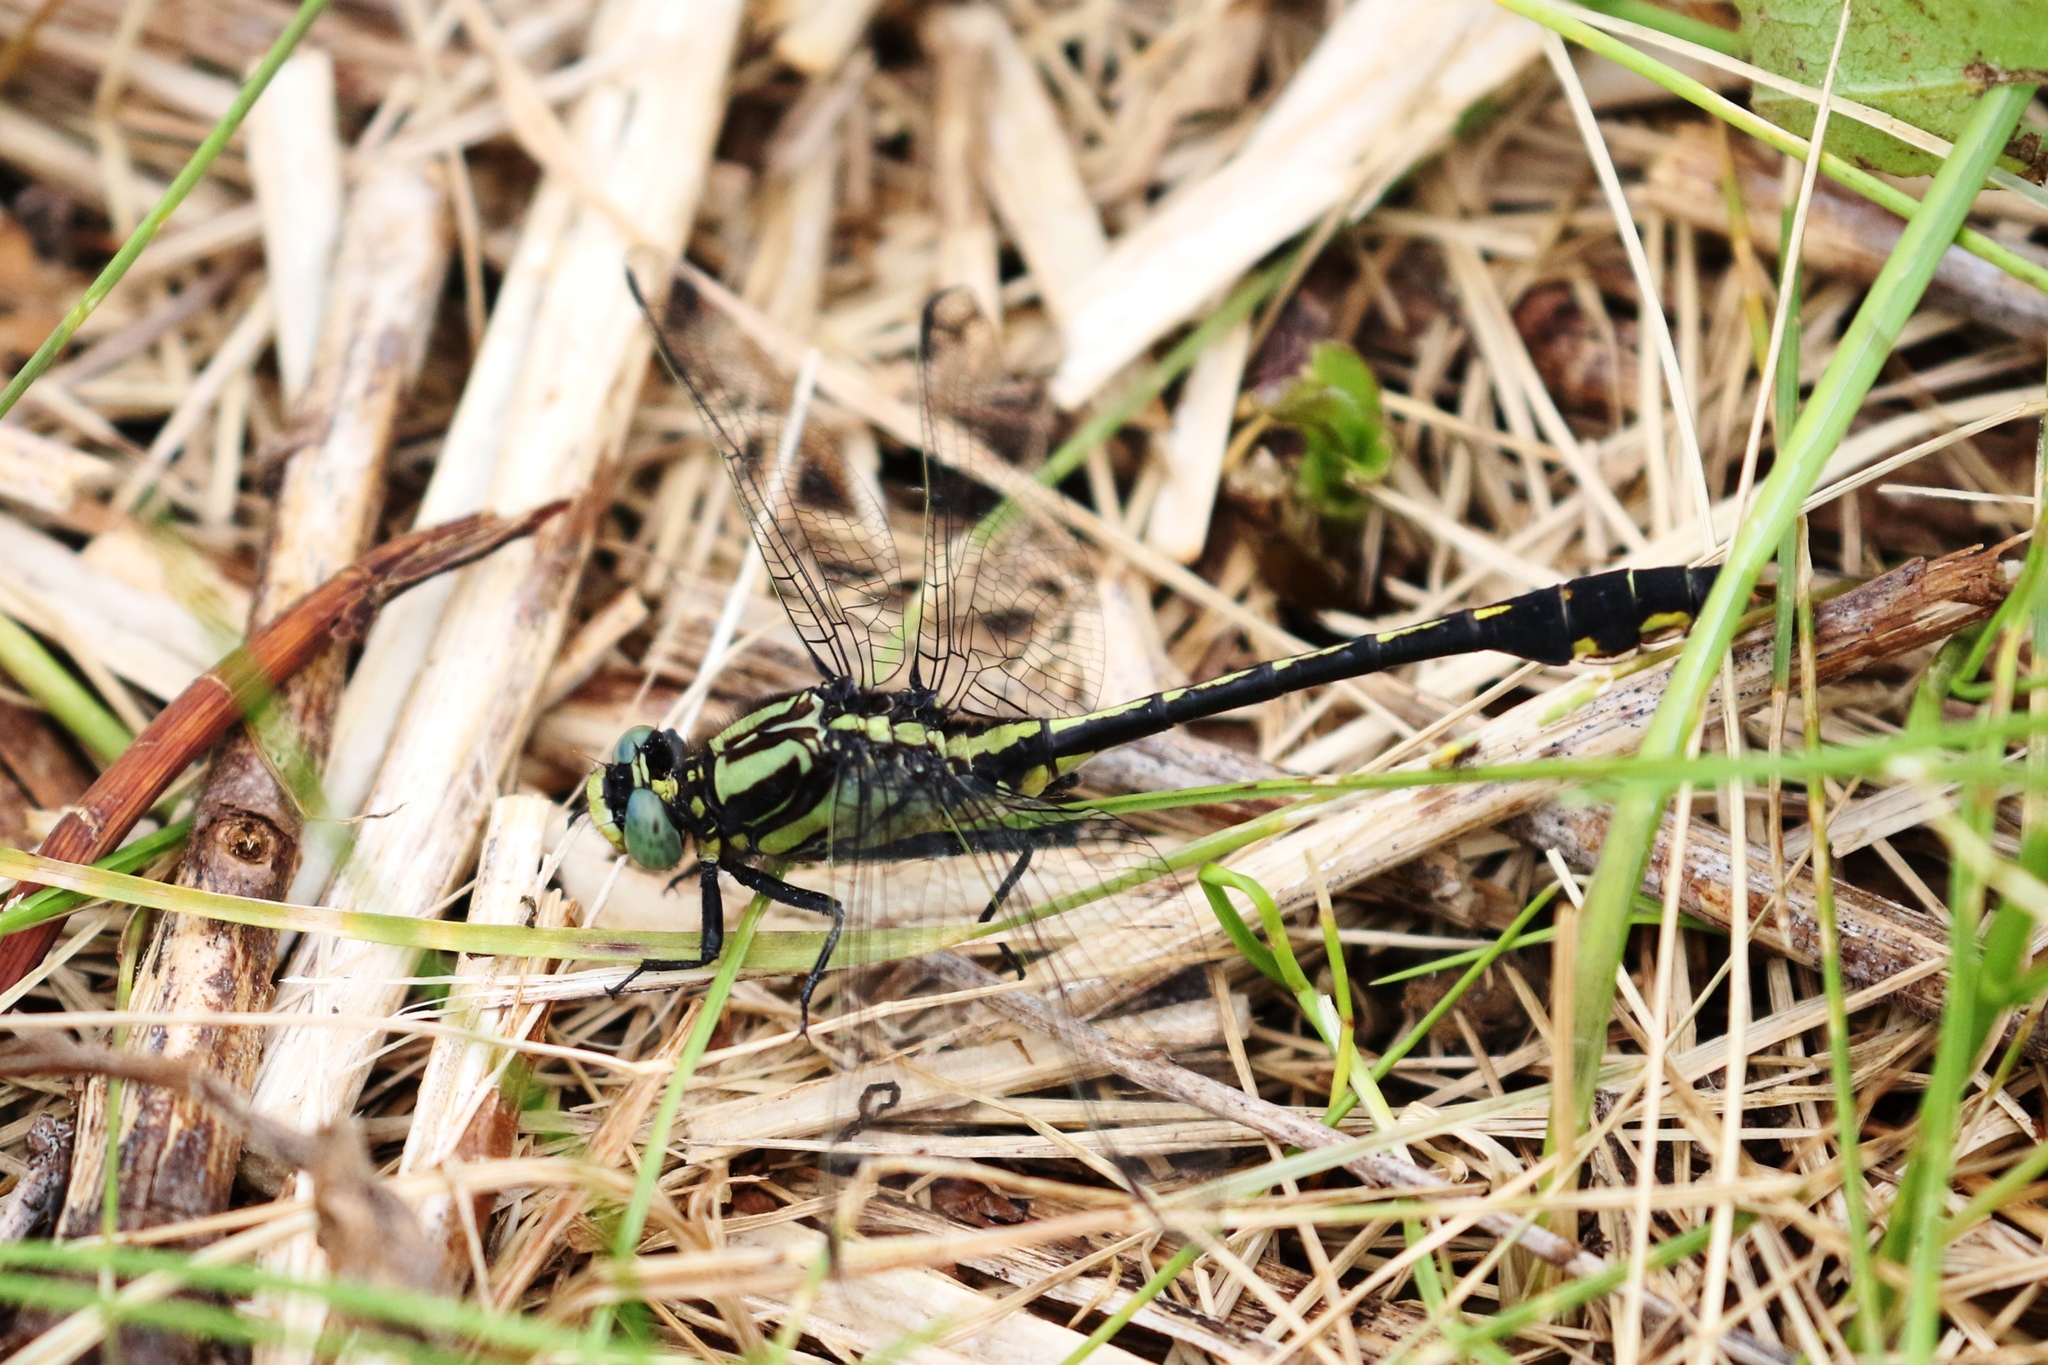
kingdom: Animalia
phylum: Arthropoda
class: Insecta
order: Odonata
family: Gomphidae
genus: Gomphurus
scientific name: Gomphurus fraternus
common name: Midland clubtail
